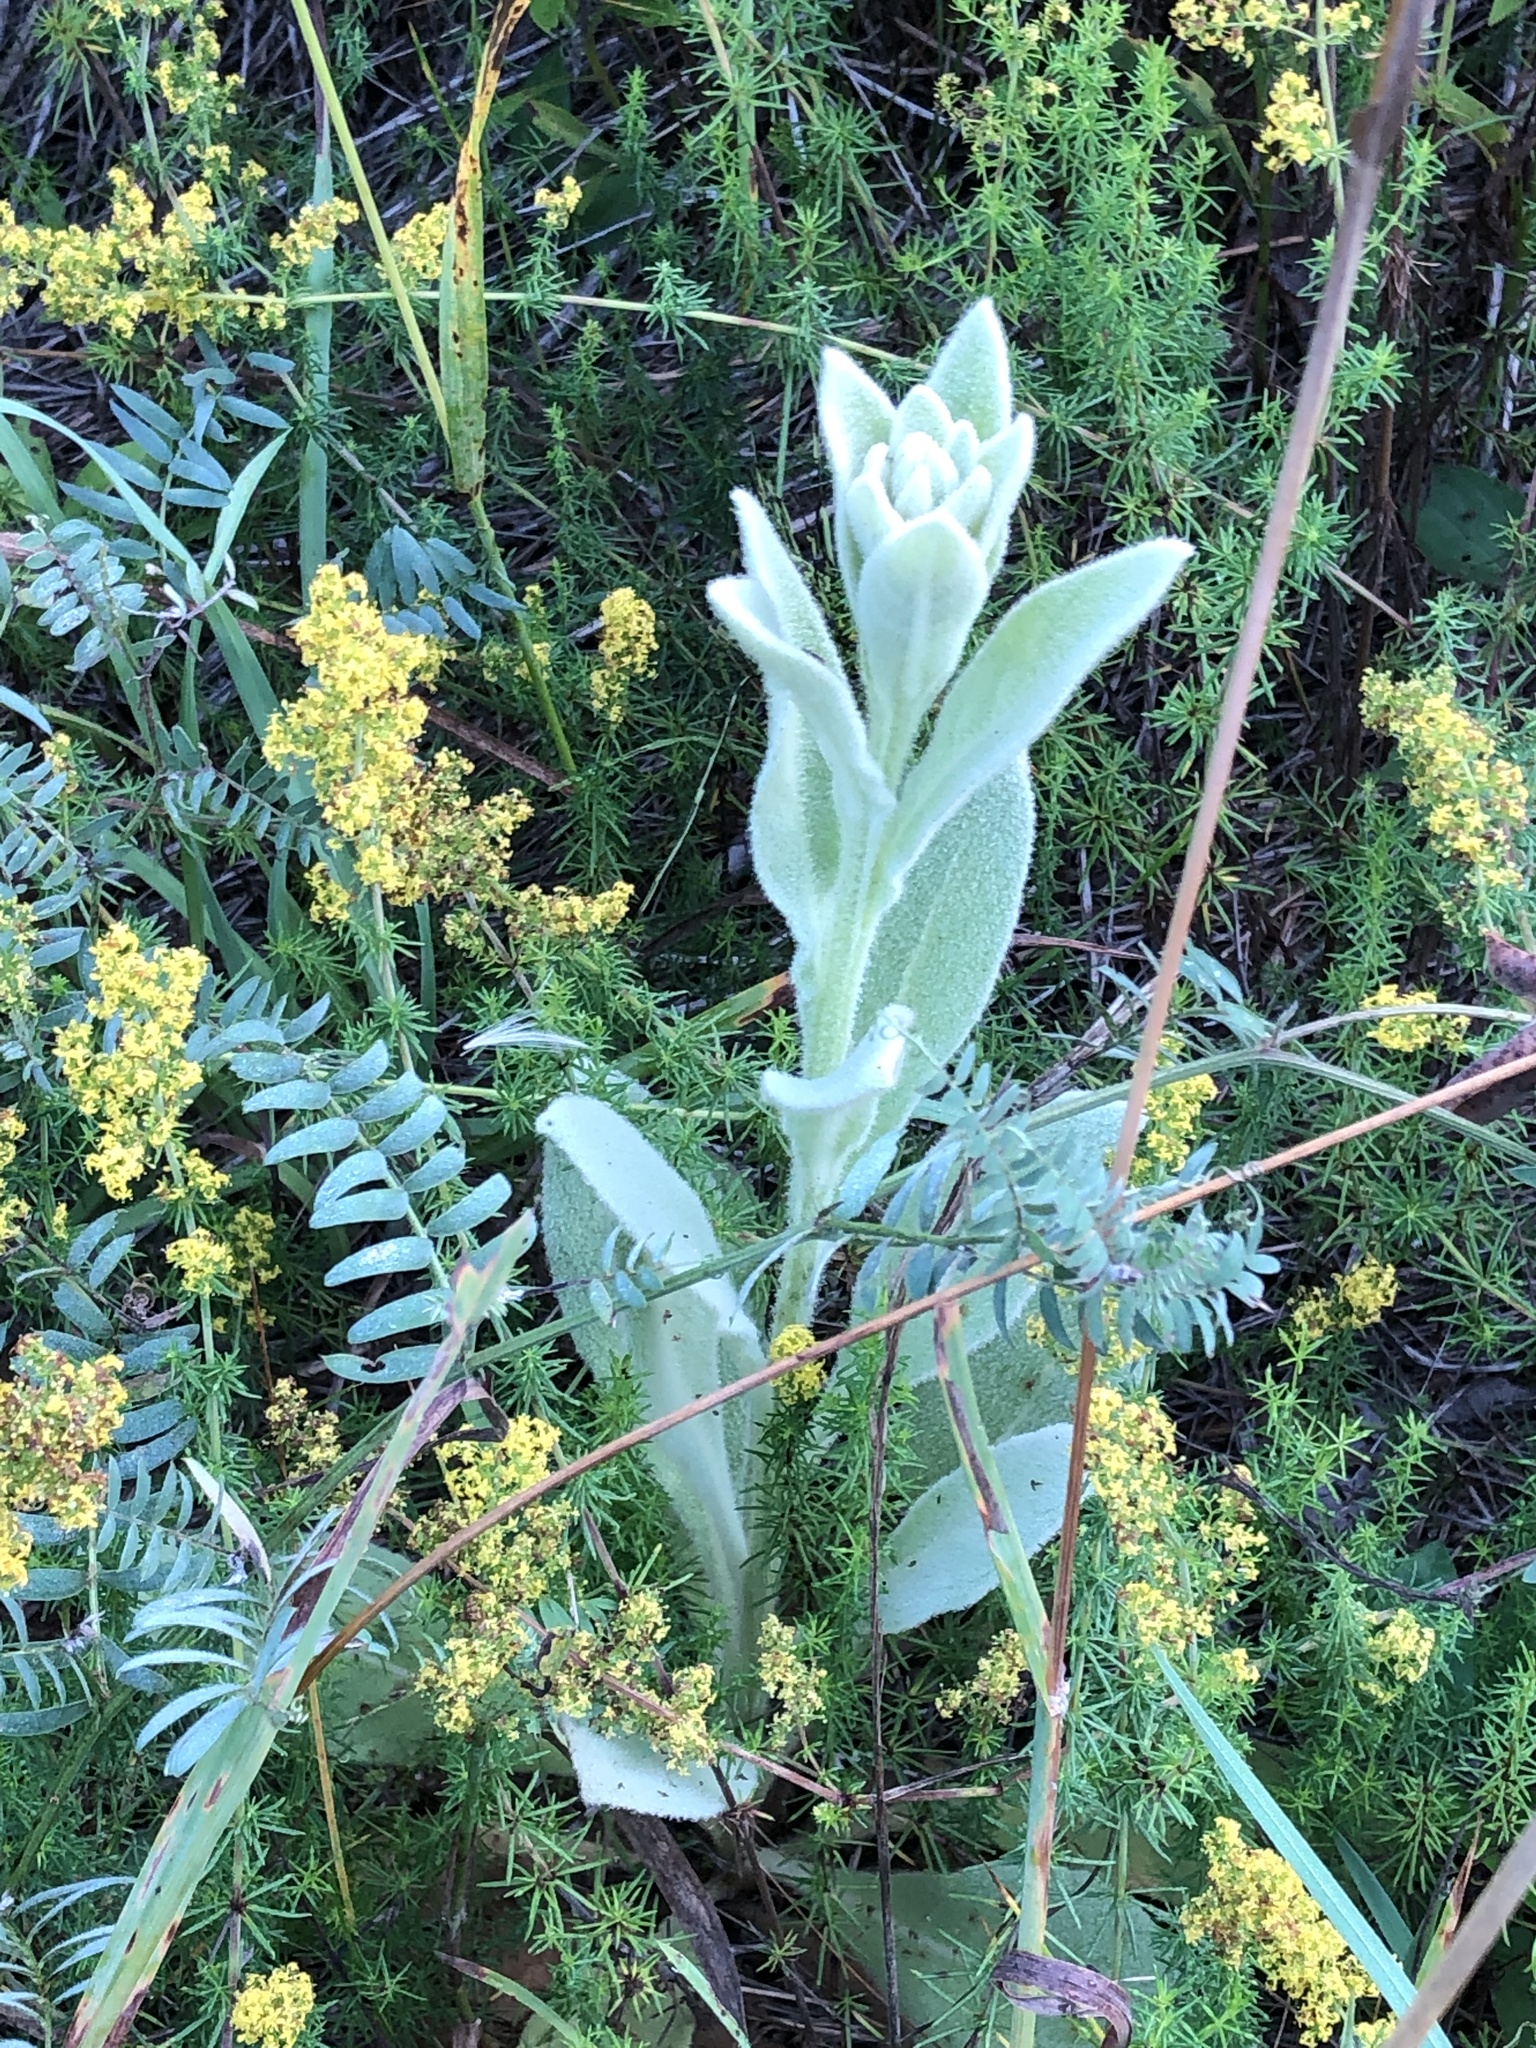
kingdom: Plantae
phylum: Tracheophyta
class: Magnoliopsida
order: Lamiales
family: Scrophulariaceae
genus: Verbascum
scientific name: Verbascum thapsus
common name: Common mullein
